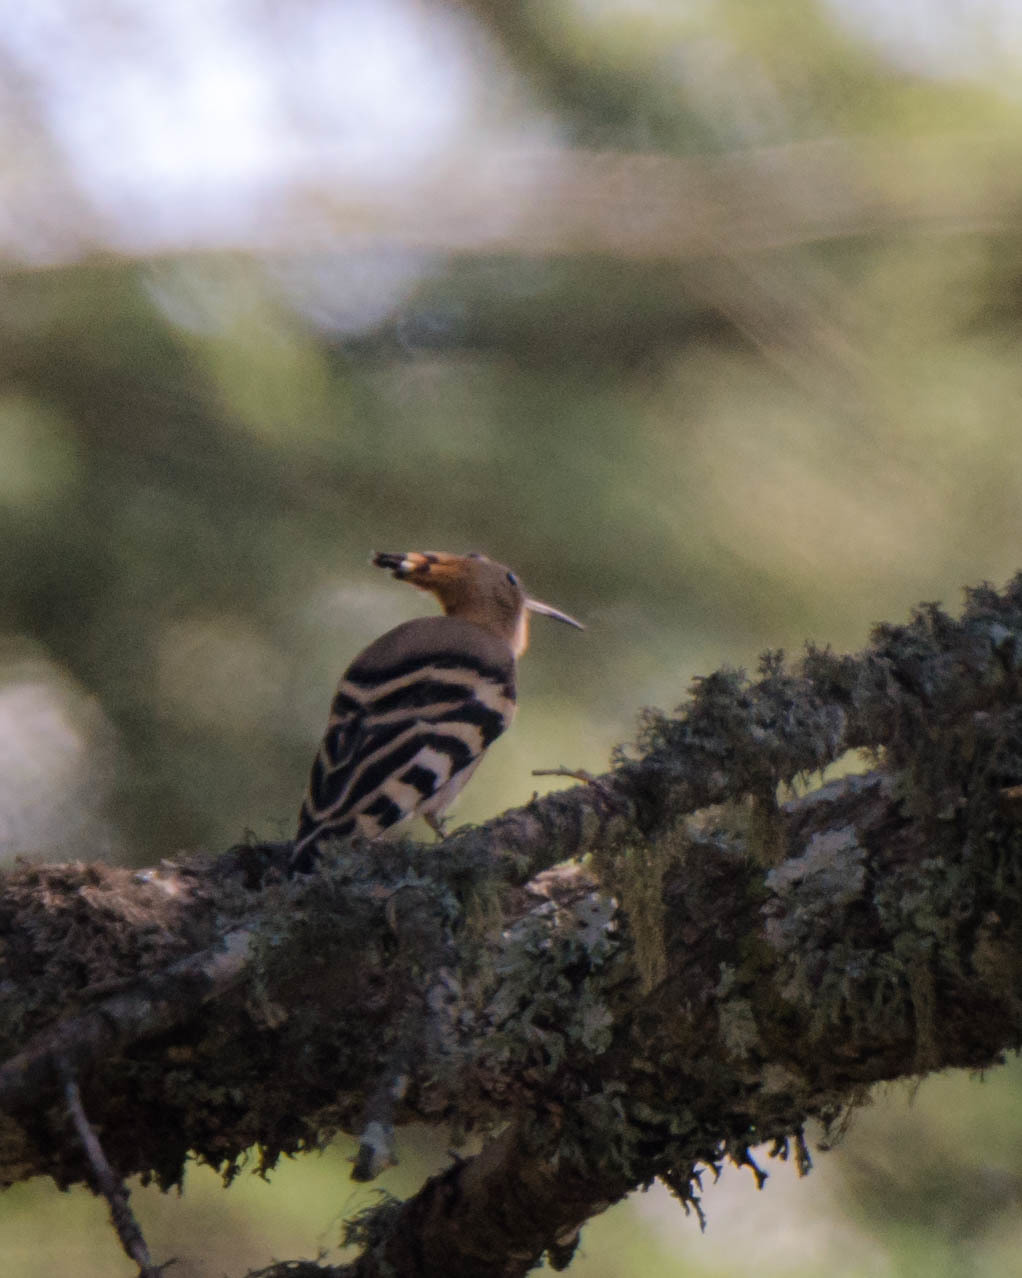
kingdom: Animalia
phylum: Chordata
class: Aves
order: Bucerotiformes
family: Upupidae
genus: Upupa
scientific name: Upupa epops
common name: Eurasian hoopoe
